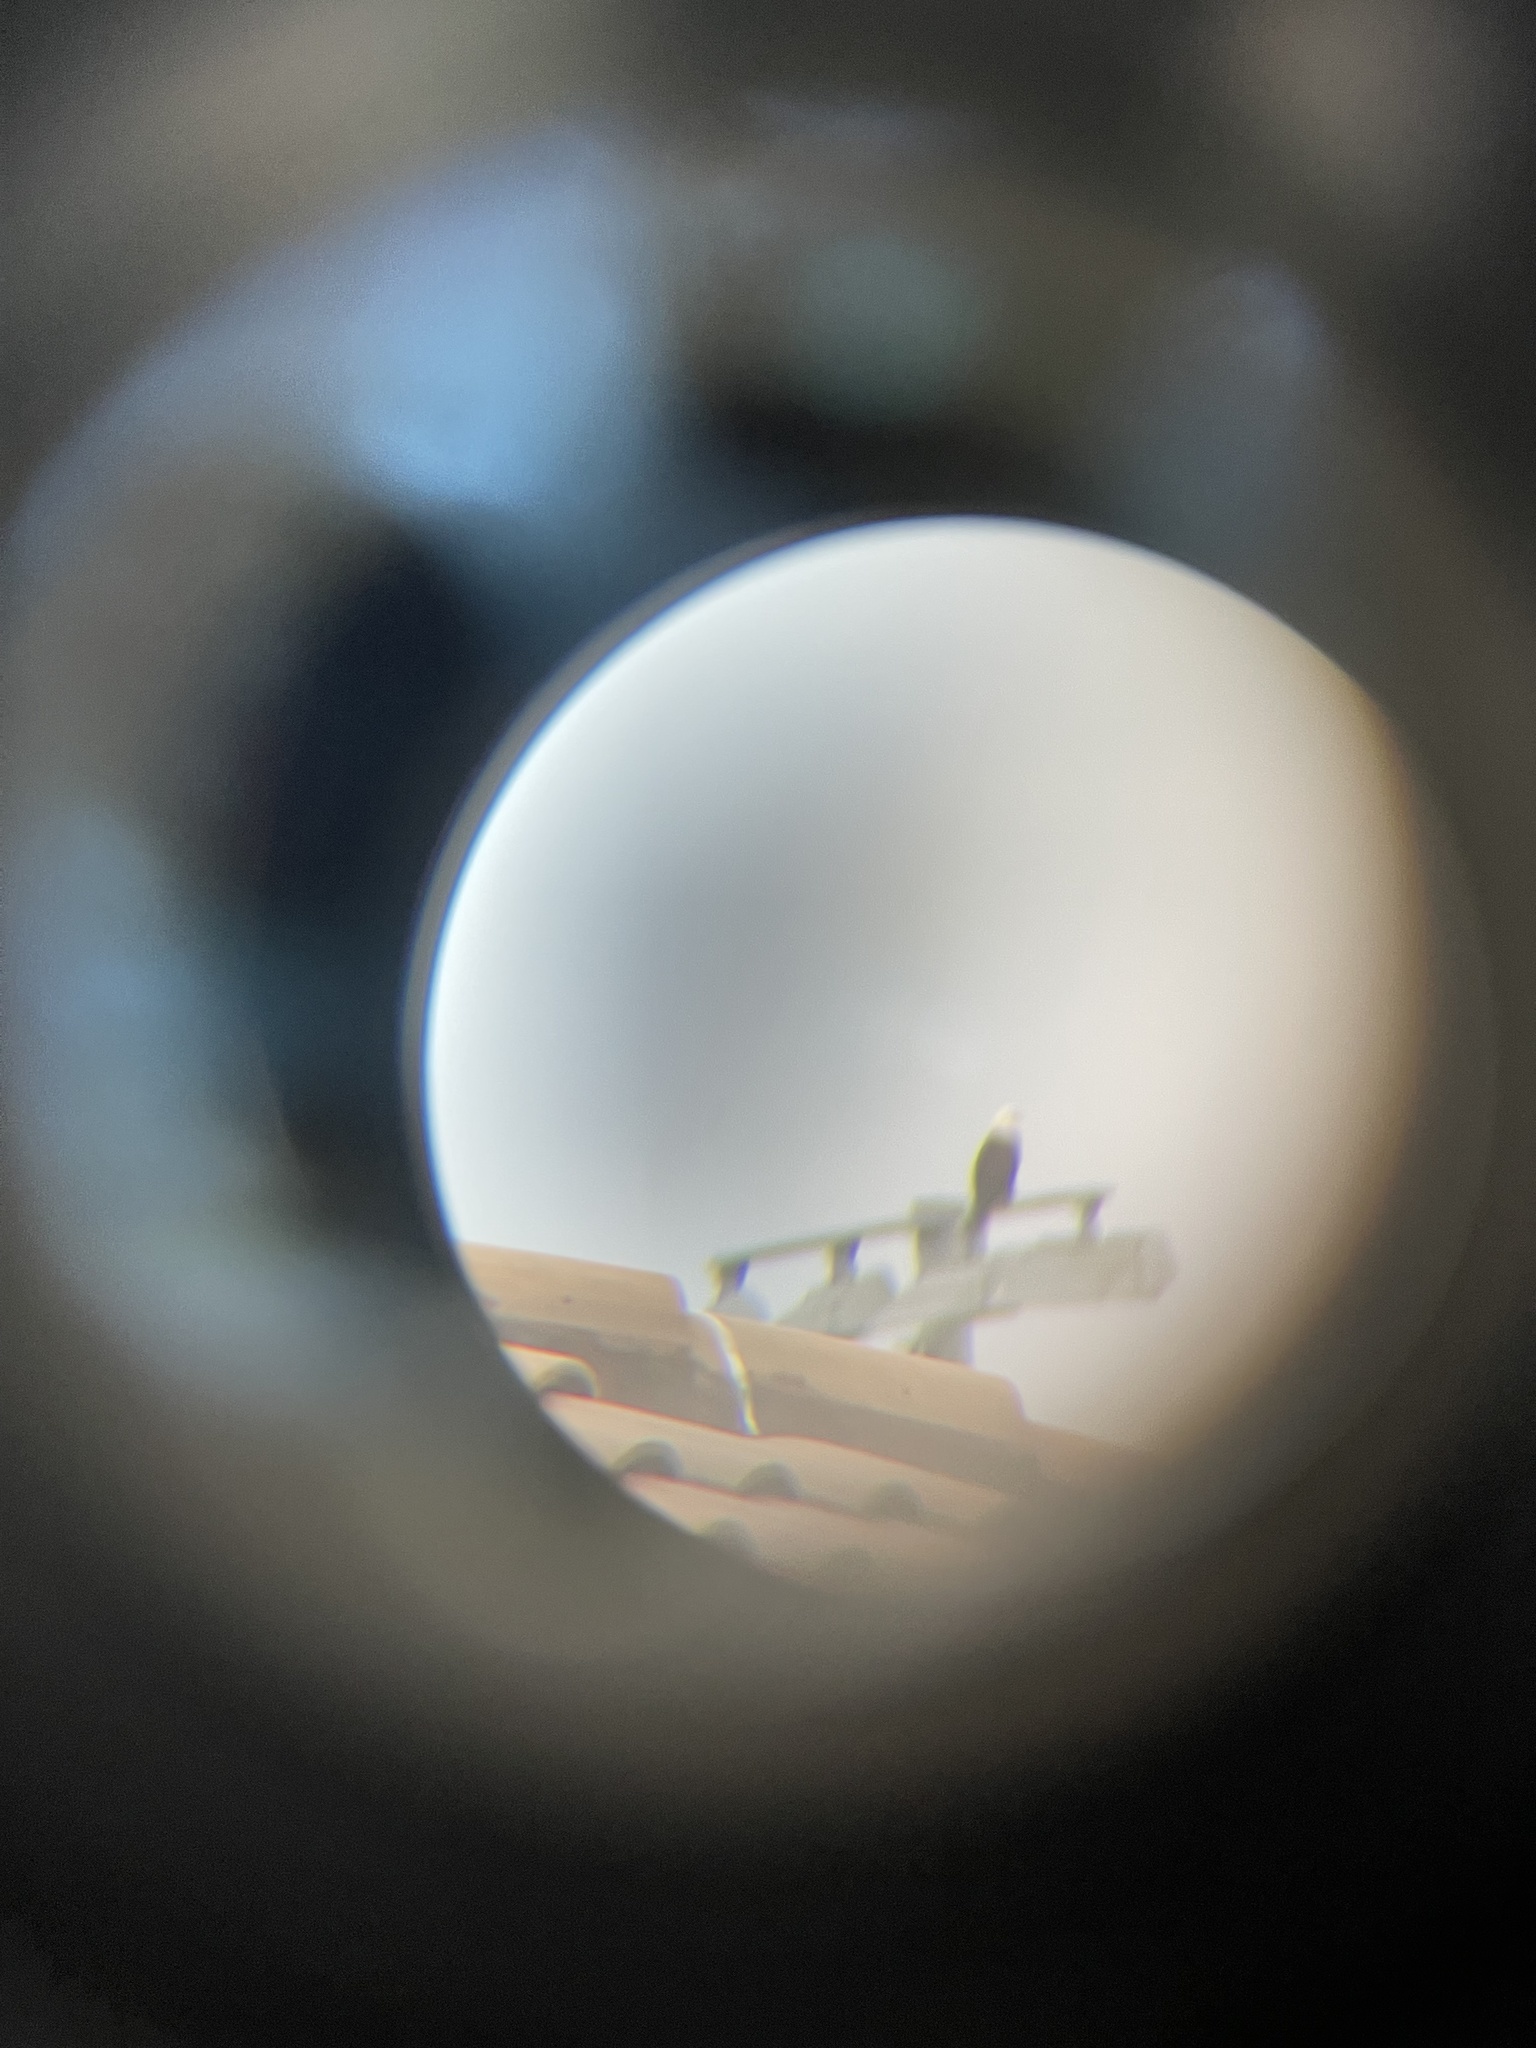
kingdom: Animalia
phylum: Chordata
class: Aves
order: Accipitriformes
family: Accipitridae
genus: Haliaeetus
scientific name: Haliaeetus leucocephalus
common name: Bald eagle
